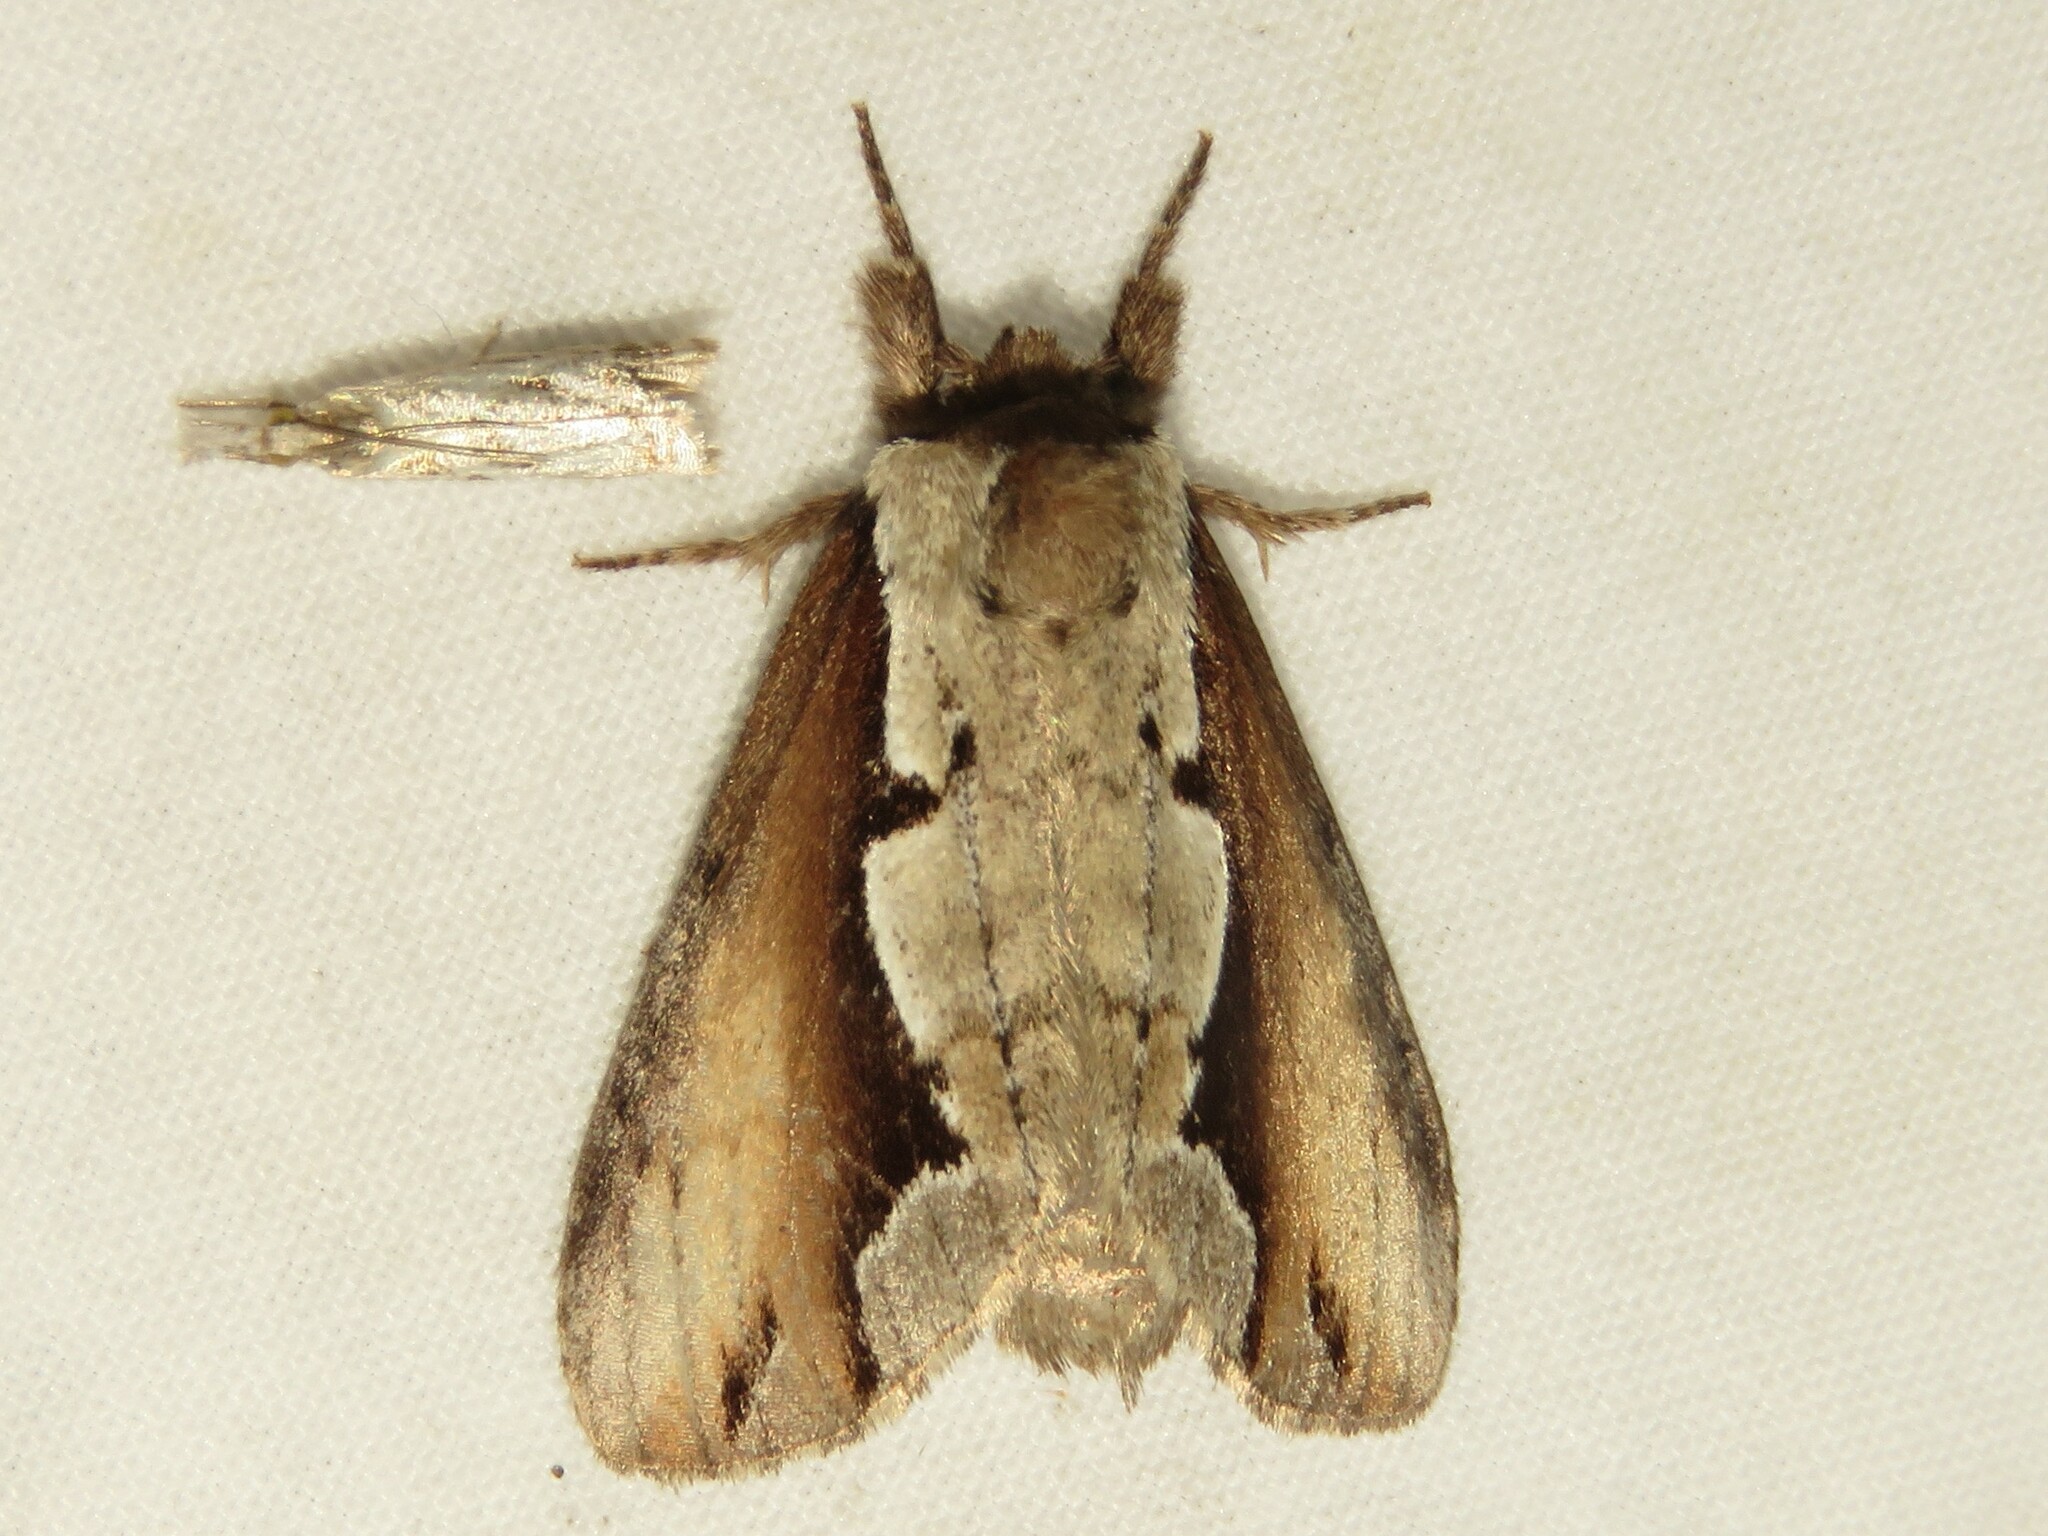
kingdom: Animalia
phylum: Arthropoda
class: Insecta
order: Lepidoptera
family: Notodontidae
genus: Nerice
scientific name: Nerice bidentata
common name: Double-toothed prominent
